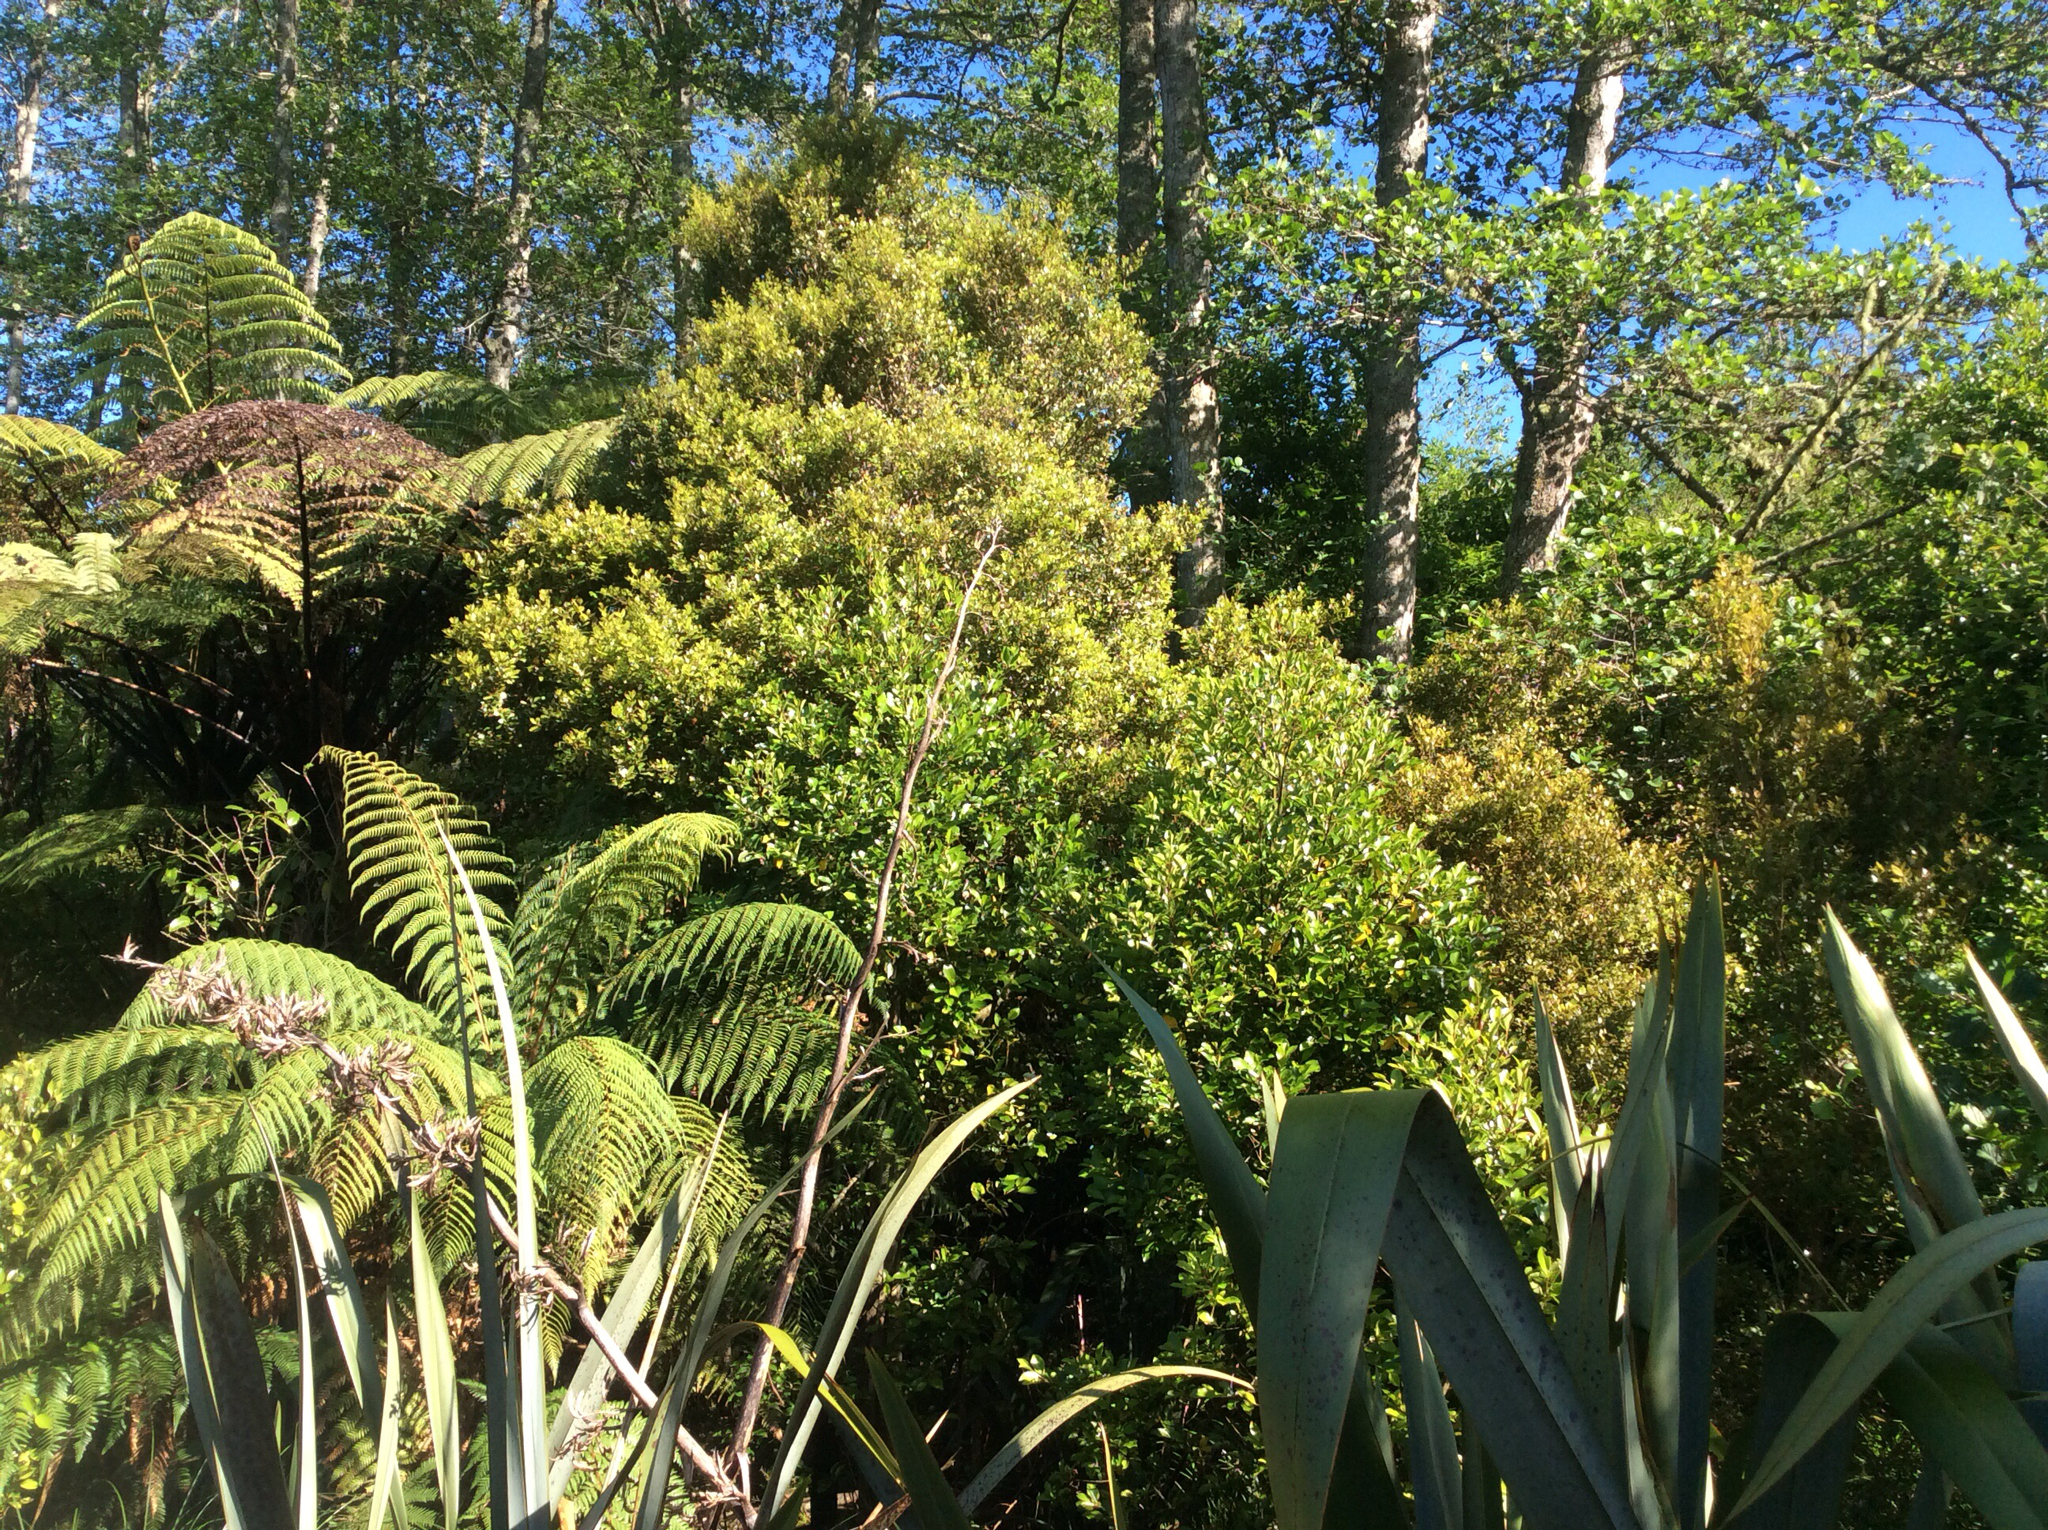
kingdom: Plantae
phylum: Tracheophyta
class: Magnoliopsida
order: Myrtales
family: Myrtaceae
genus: Syzygium
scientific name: Syzygium maire
